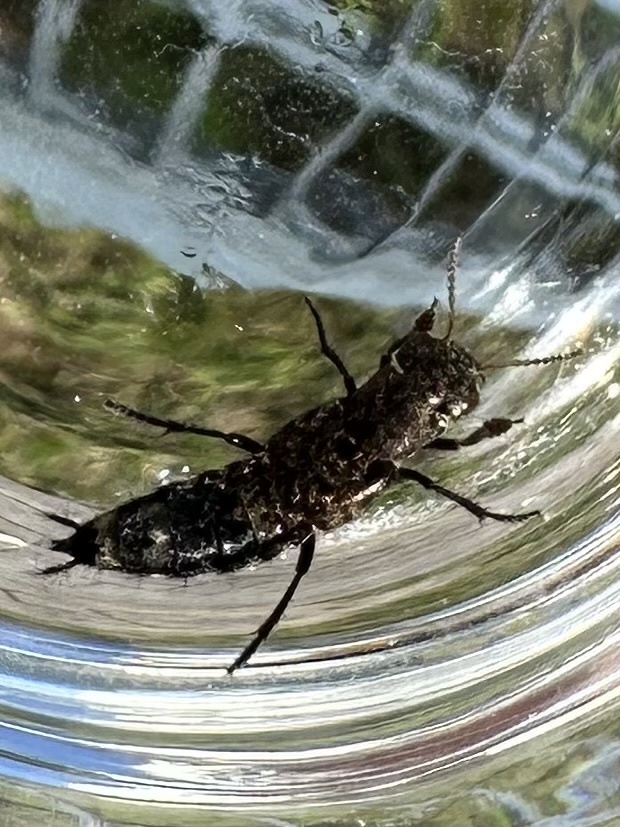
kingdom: Animalia
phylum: Arthropoda
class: Insecta
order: Coleoptera
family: Staphylinidae
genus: Ontholestes
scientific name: Ontholestes murinus
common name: Staph beetle
